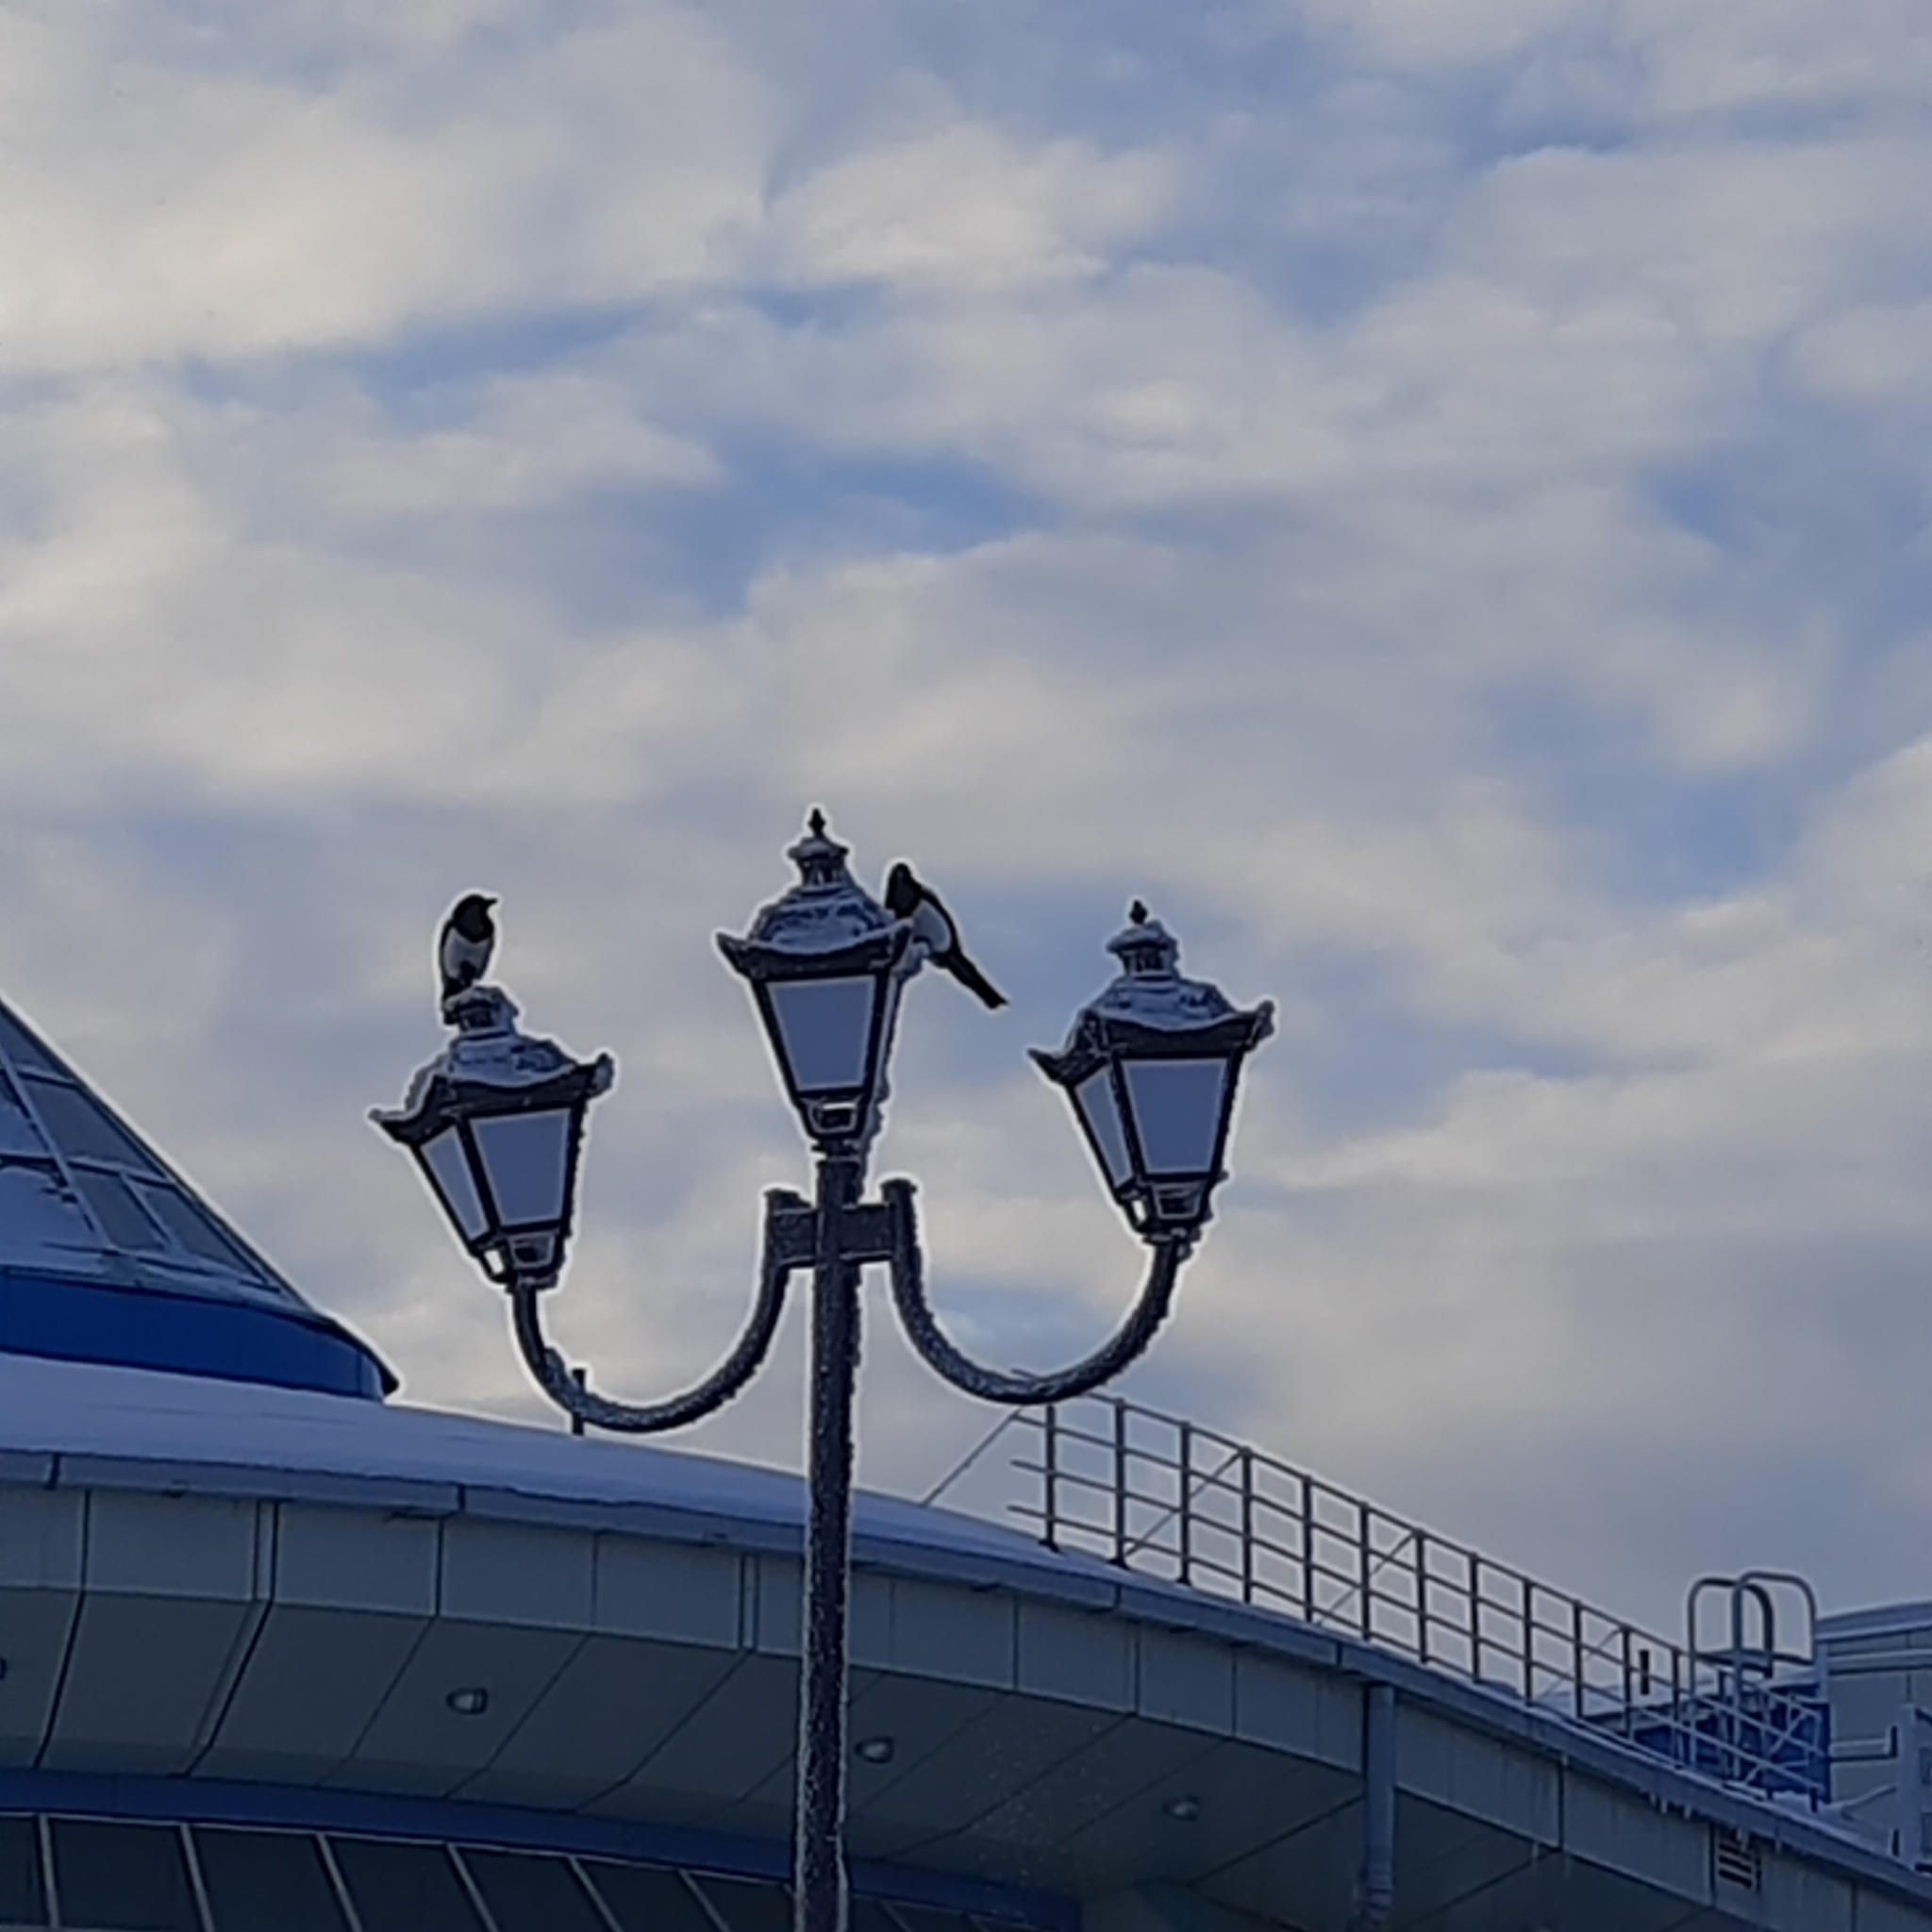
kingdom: Animalia
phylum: Chordata
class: Aves
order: Passeriformes
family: Corvidae
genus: Pica
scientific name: Pica pica
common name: Eurasian magpie
